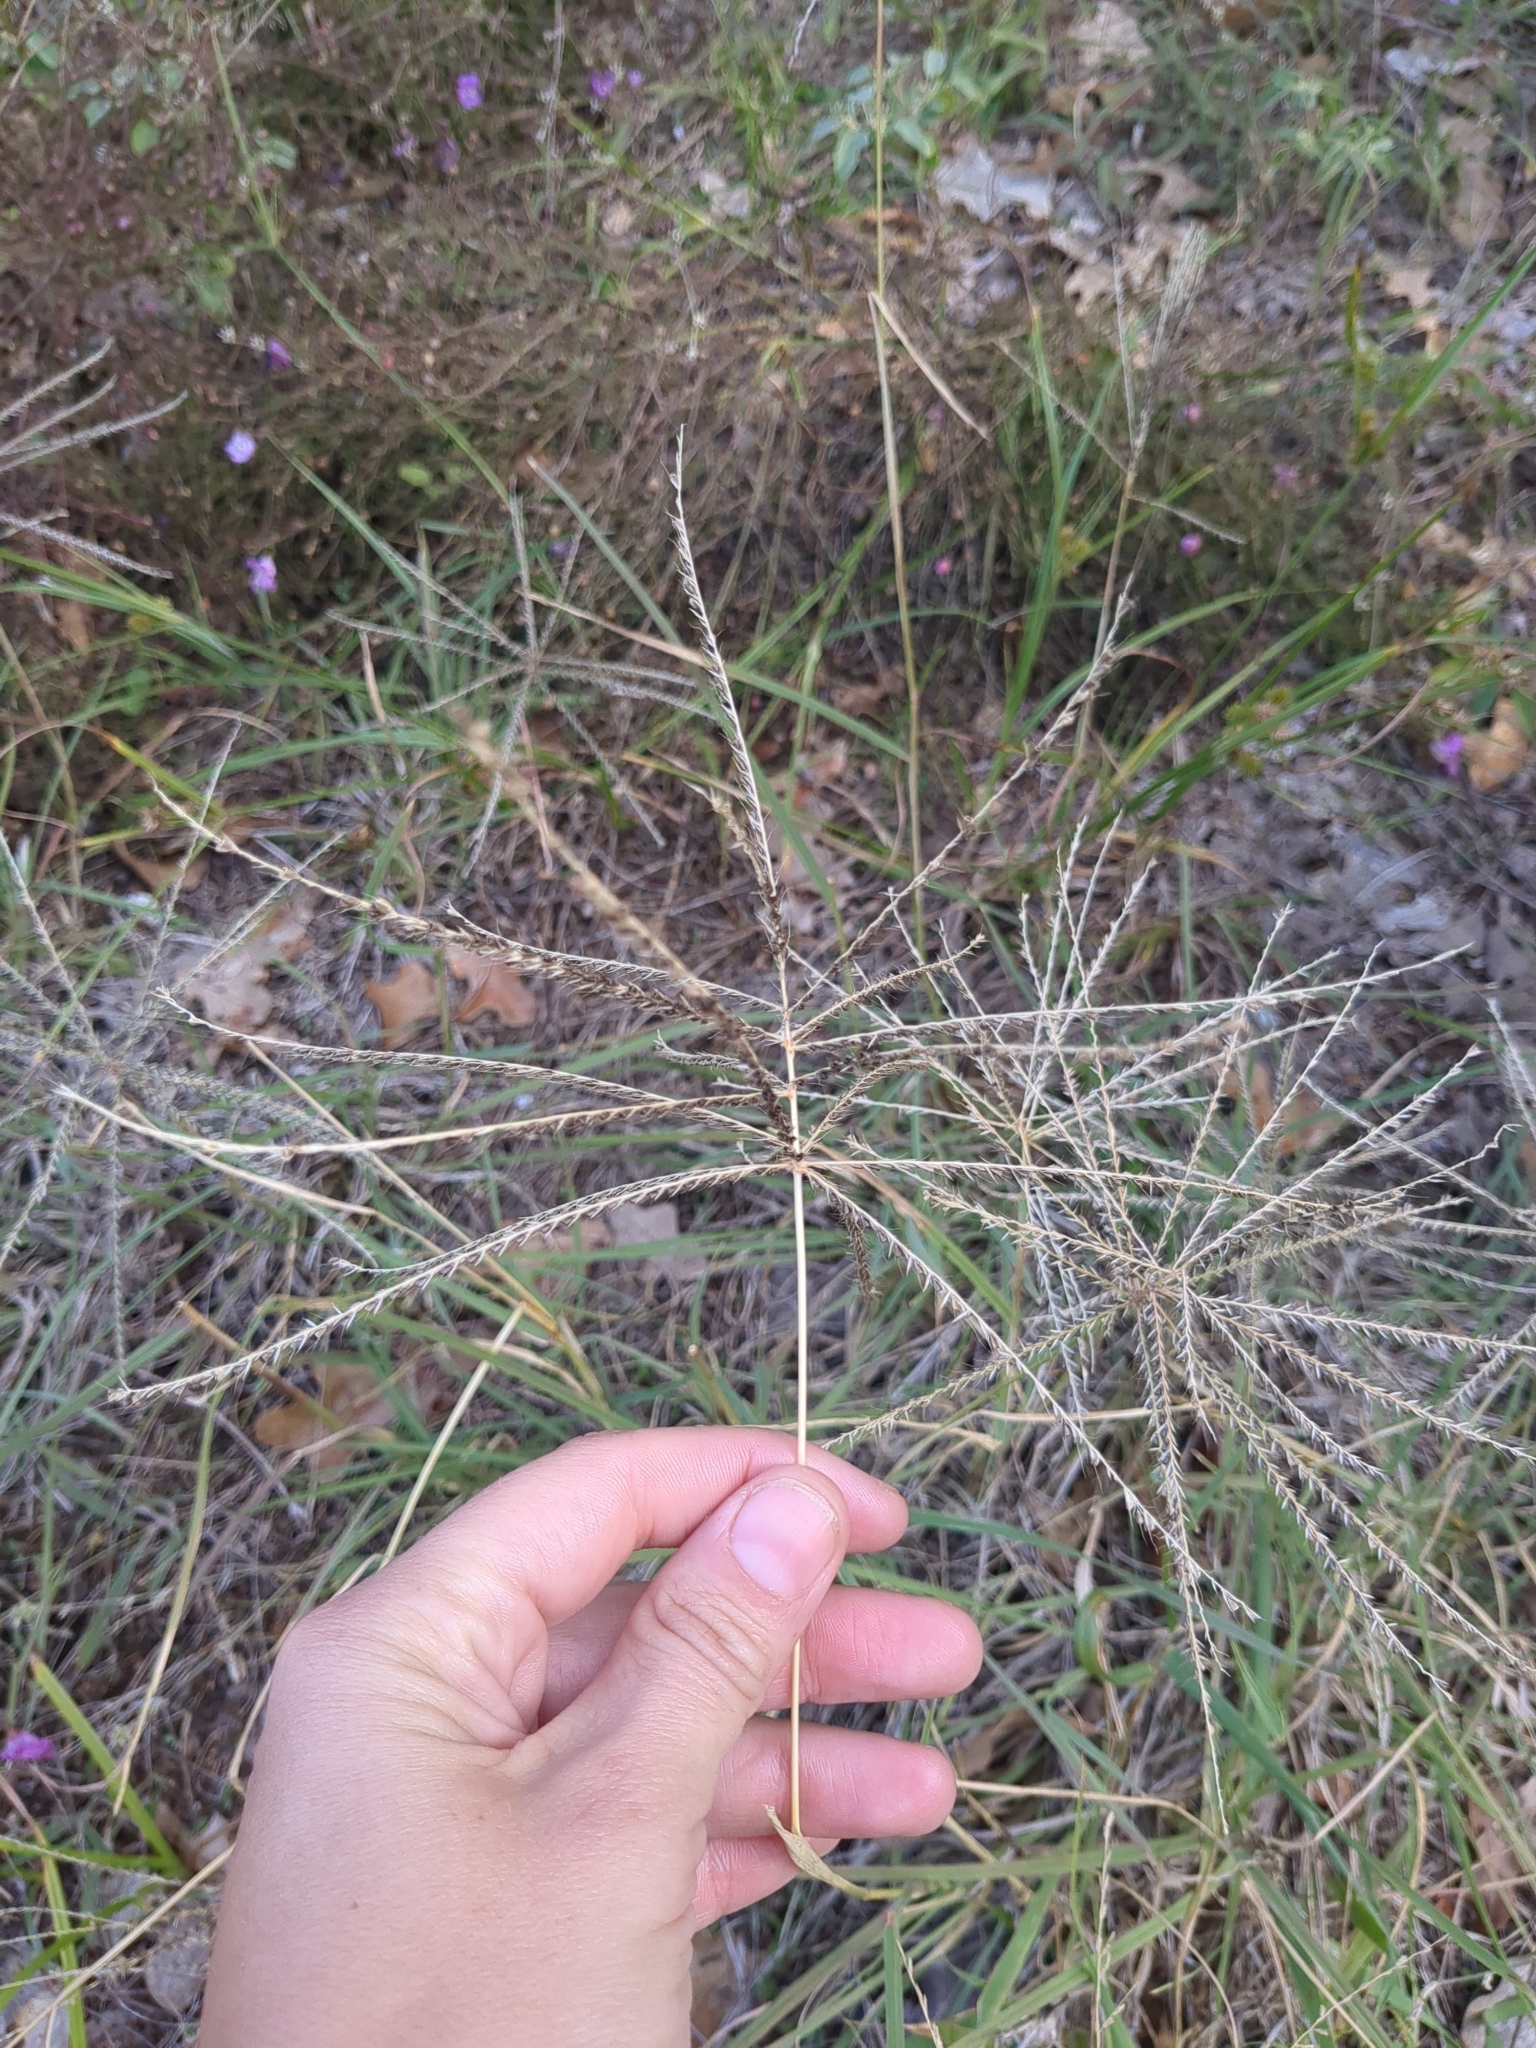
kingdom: Plantae
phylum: Tracheophyta
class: Liliopsida
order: Poales
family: Poaceae
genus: Chloris
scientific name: Chloris verticillata
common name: Tumble windmill grass
